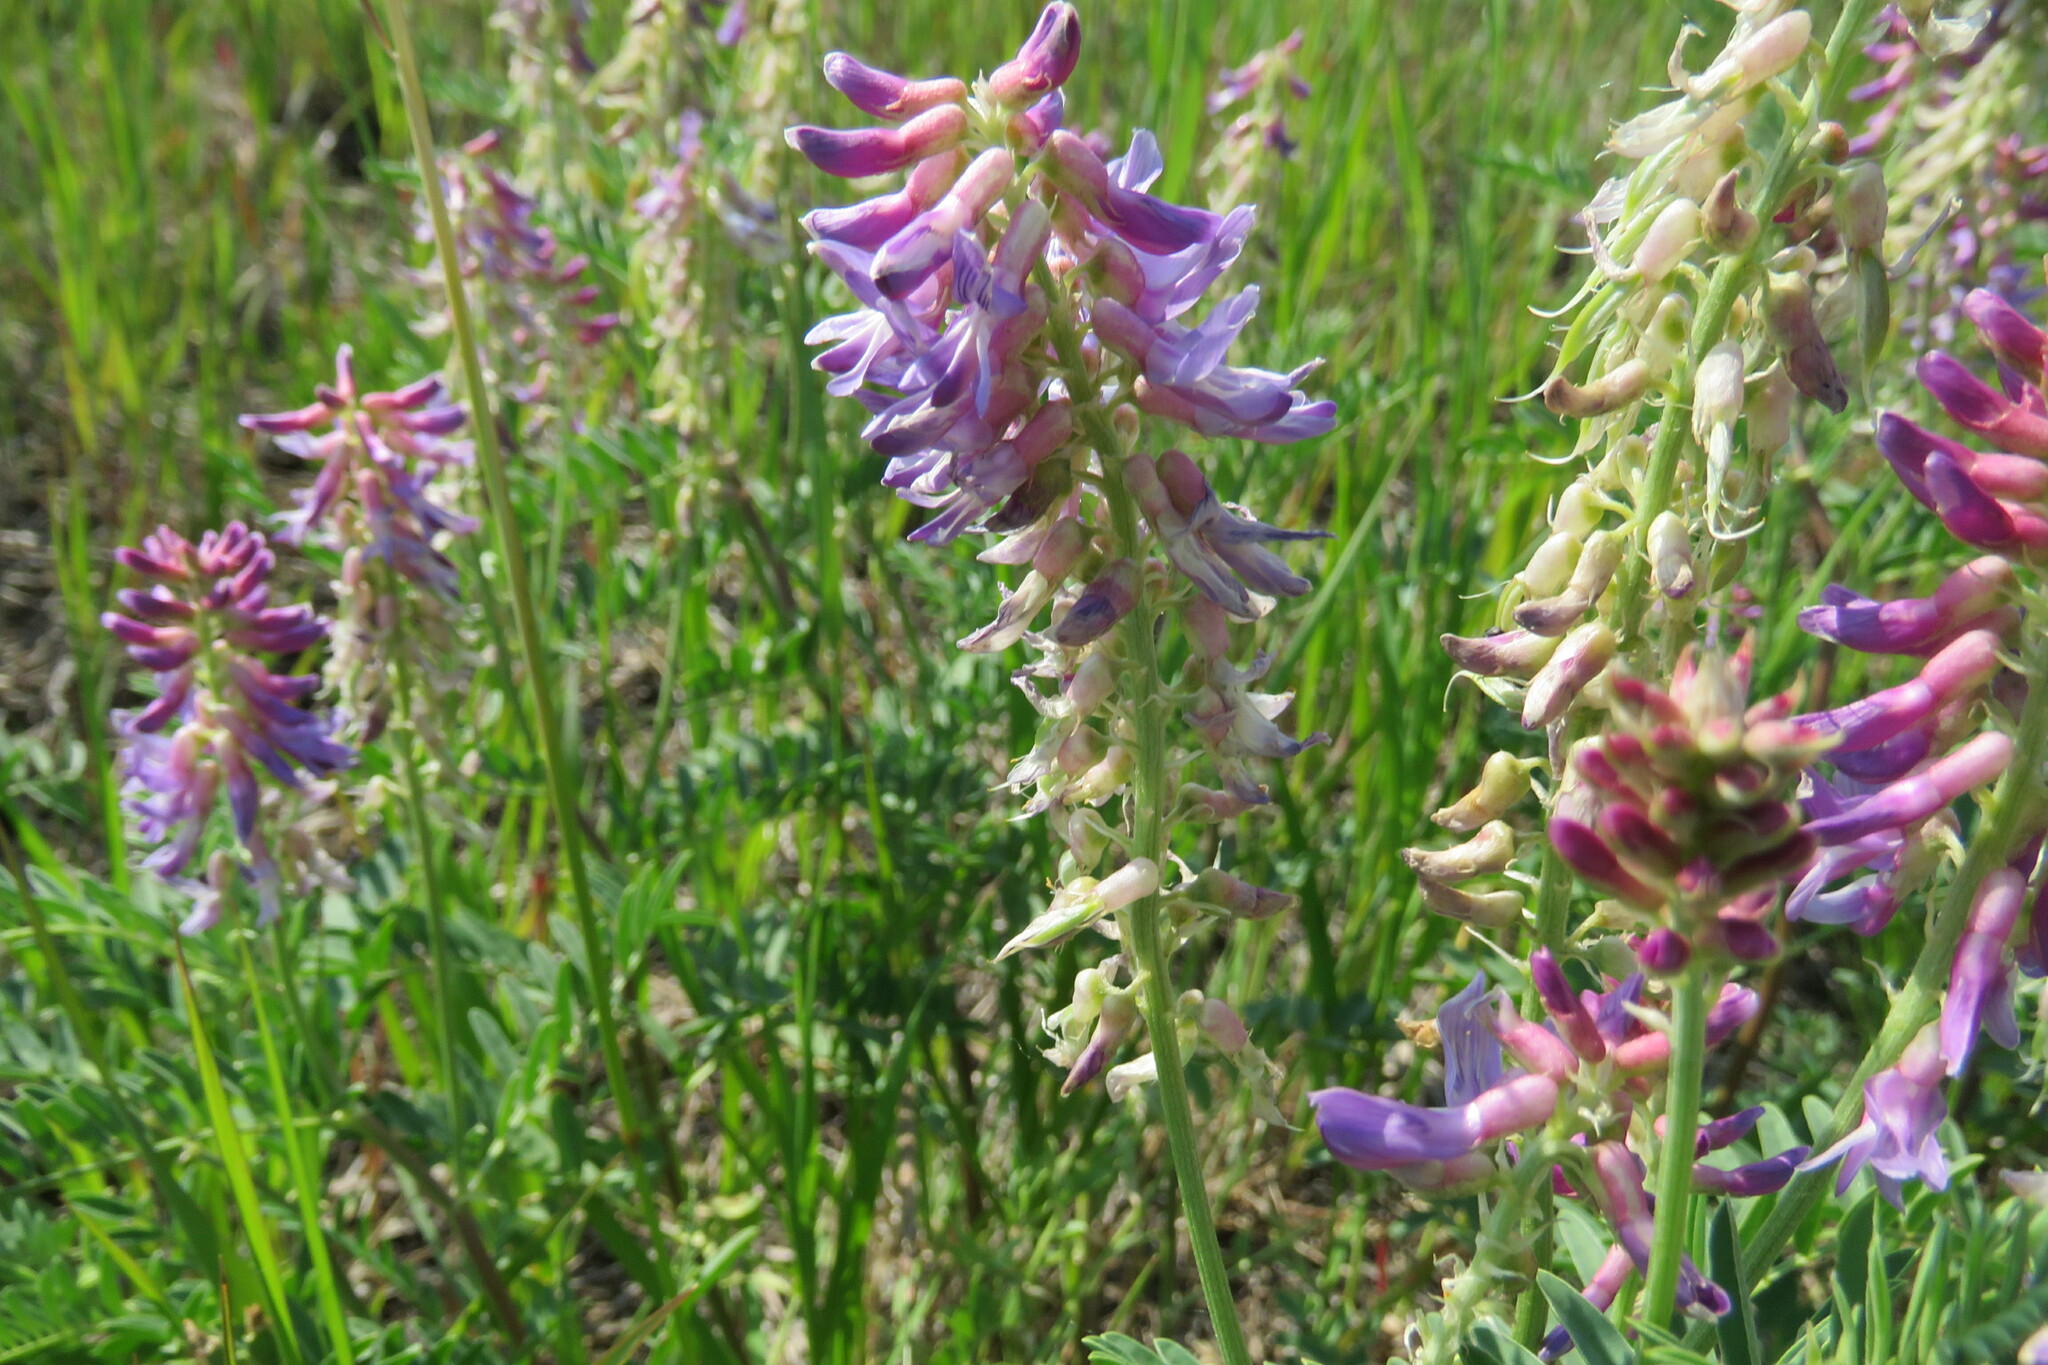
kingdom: Plantae
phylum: Tracheophyta
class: Magnoliopsida
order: Fabales
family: Fabaceae
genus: Astragalus
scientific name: Astragalus bisulcatus
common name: Two-groove milk-vetch
